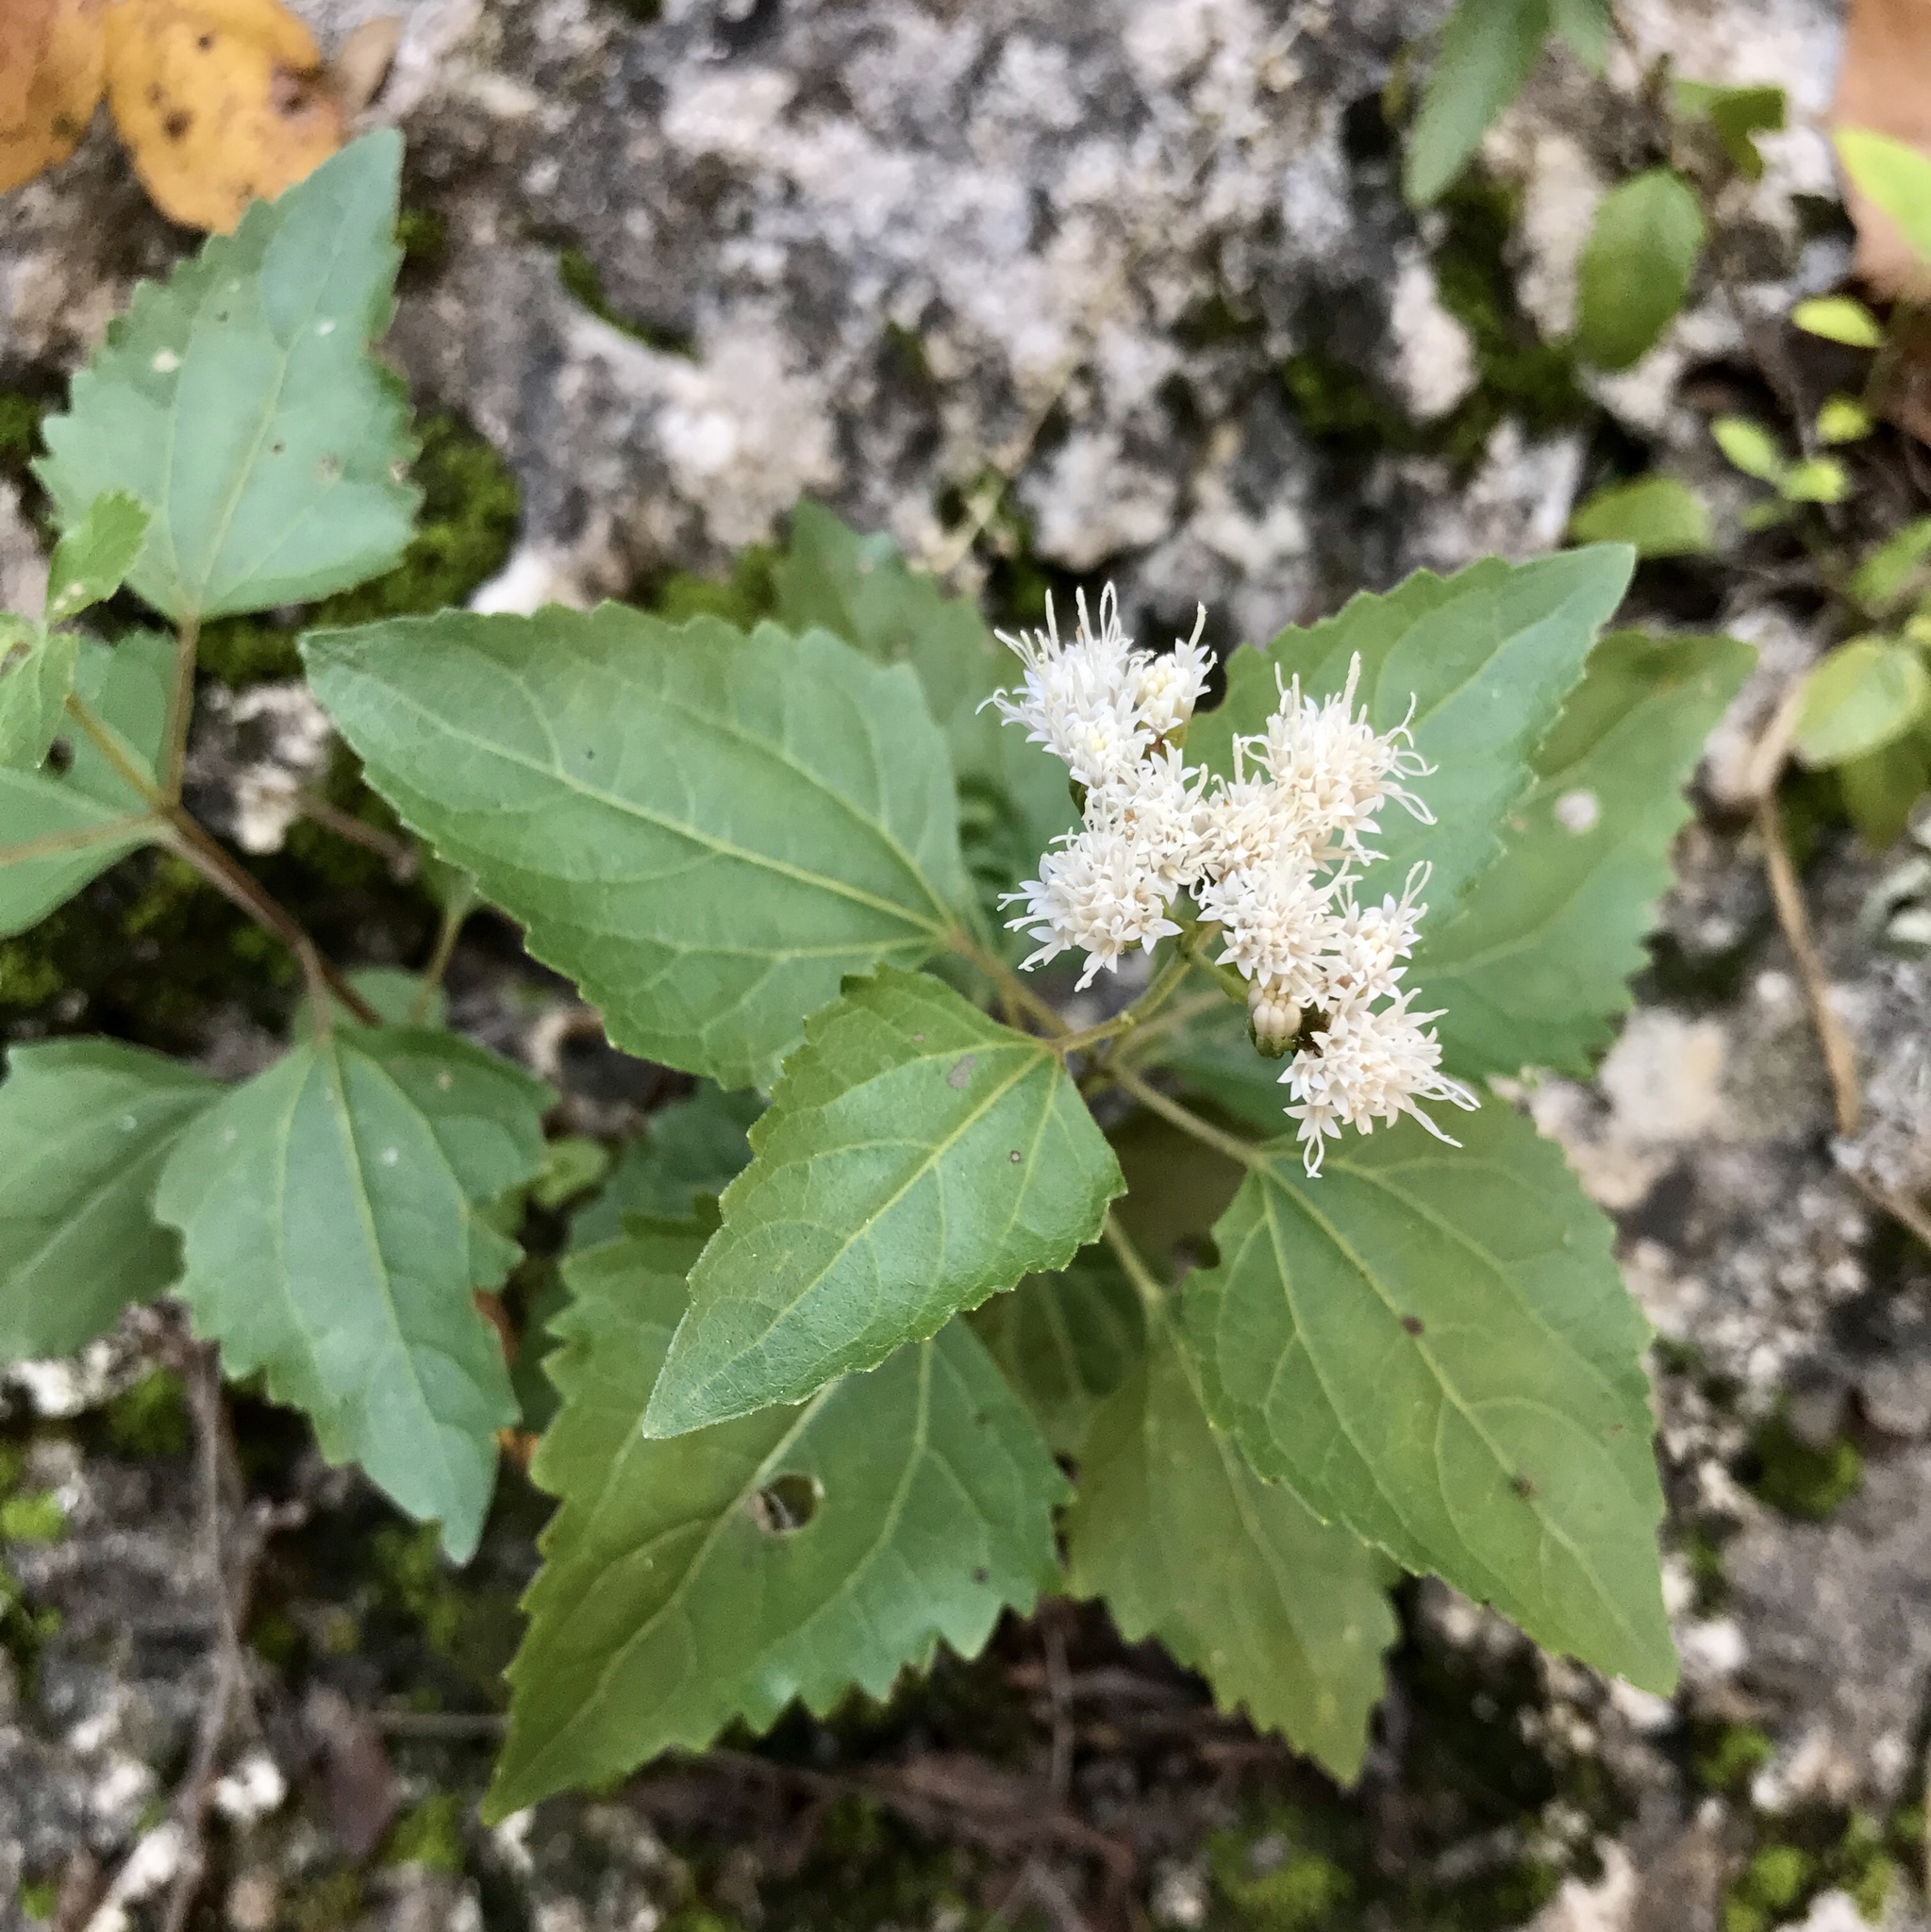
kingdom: Plantae
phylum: Tracheophyta
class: Magnoliopsida
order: Asterales
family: Asteraceae
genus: Ageratina
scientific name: Ageratina havanensis
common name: Havana snakeroot
